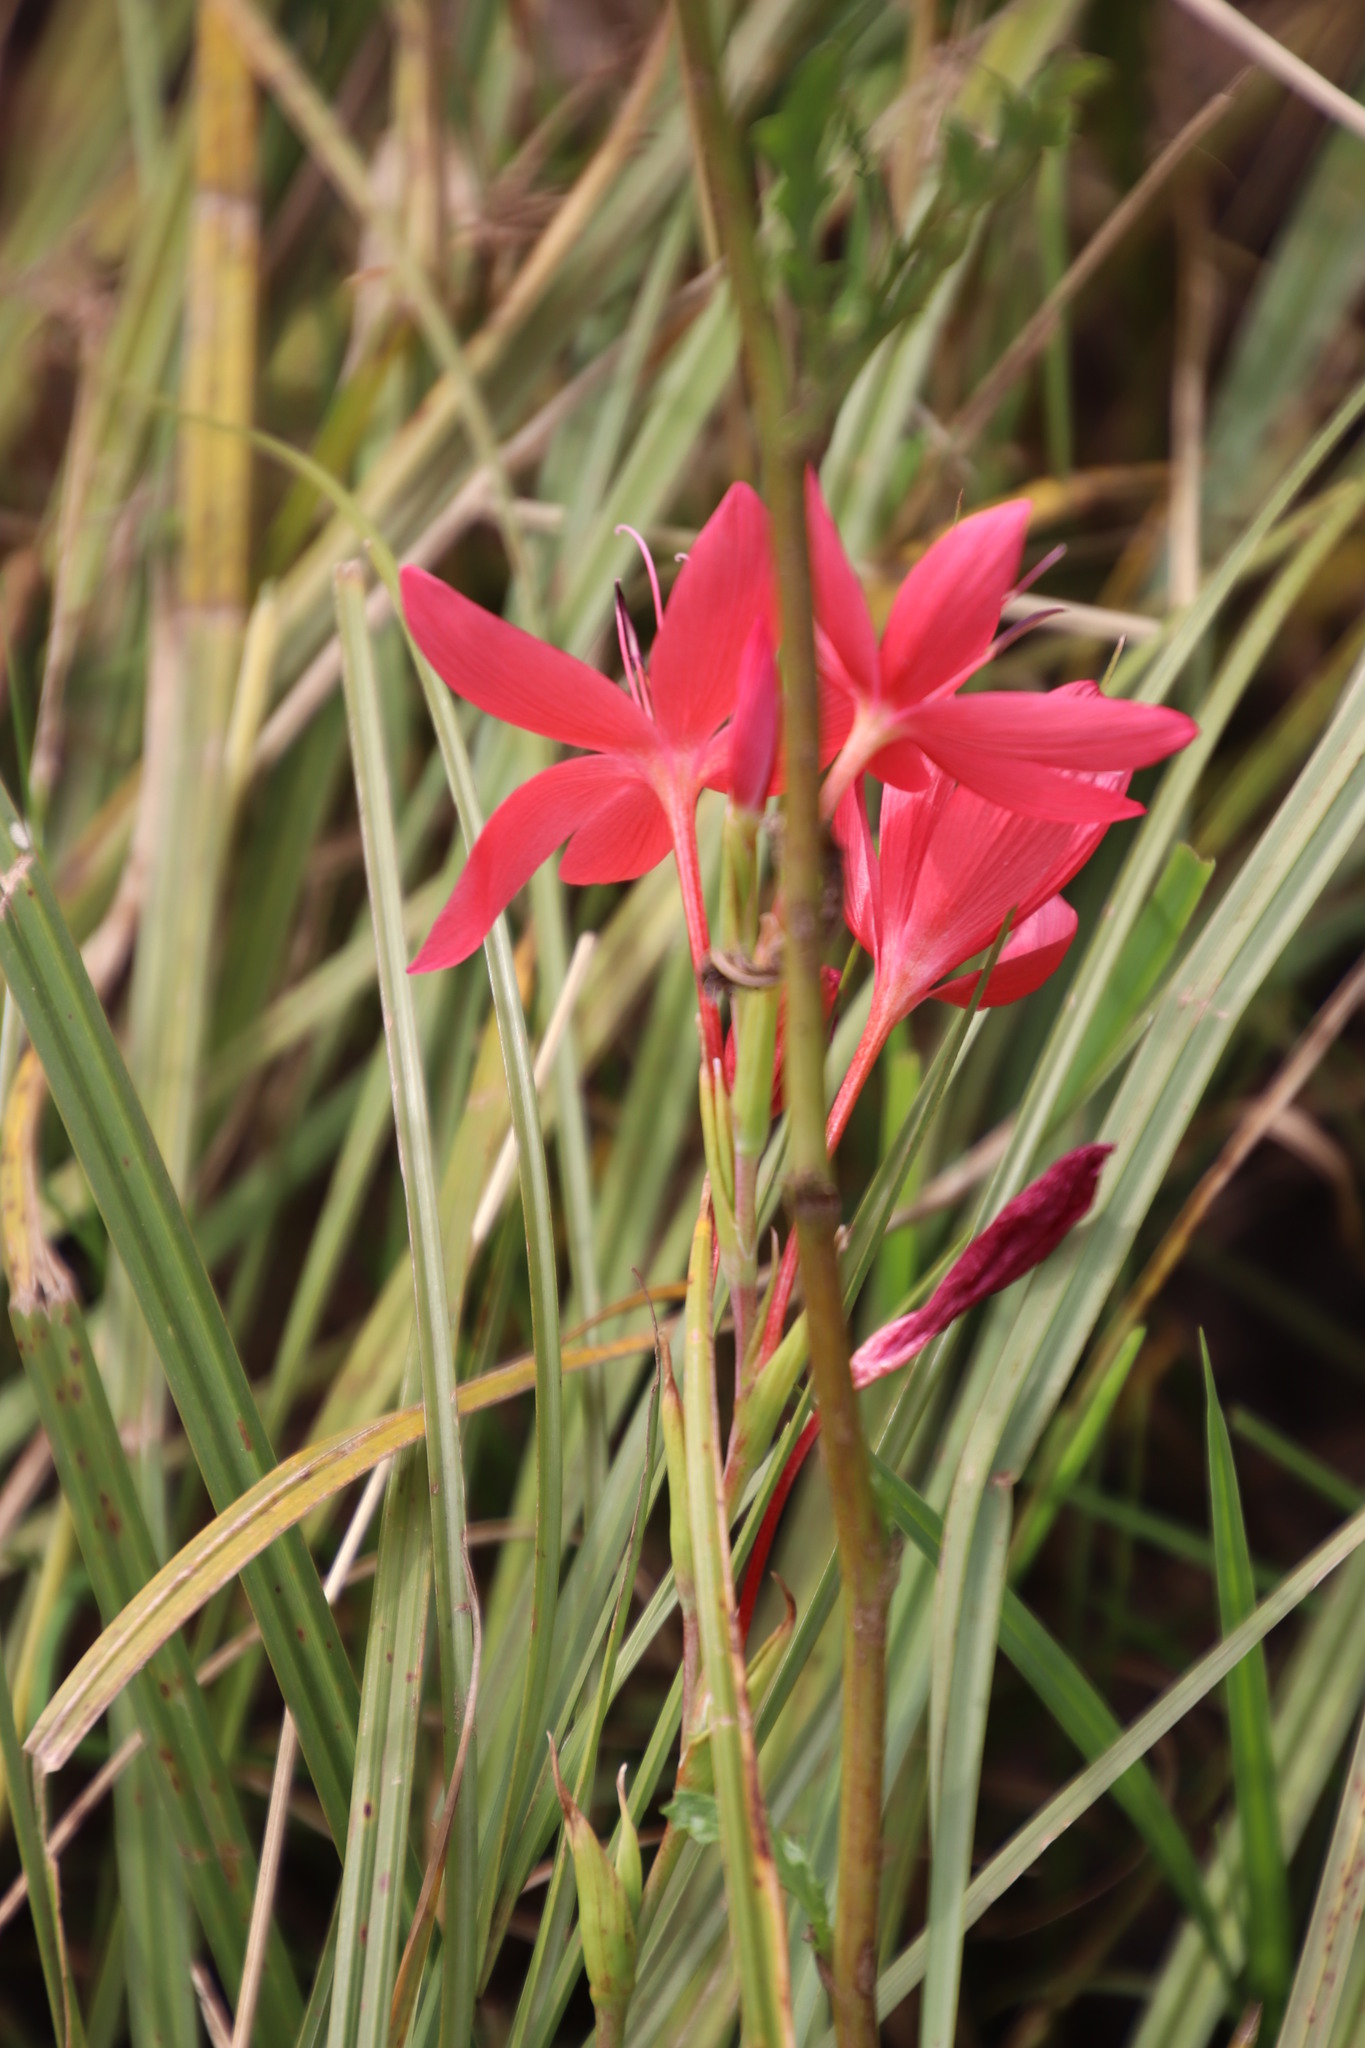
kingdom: Plantae
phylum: Tracheophyta
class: Liliopsida
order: Asparagales
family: Iridaceae
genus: Hesperantha
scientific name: Hesperantha coccinea
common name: River-lily
